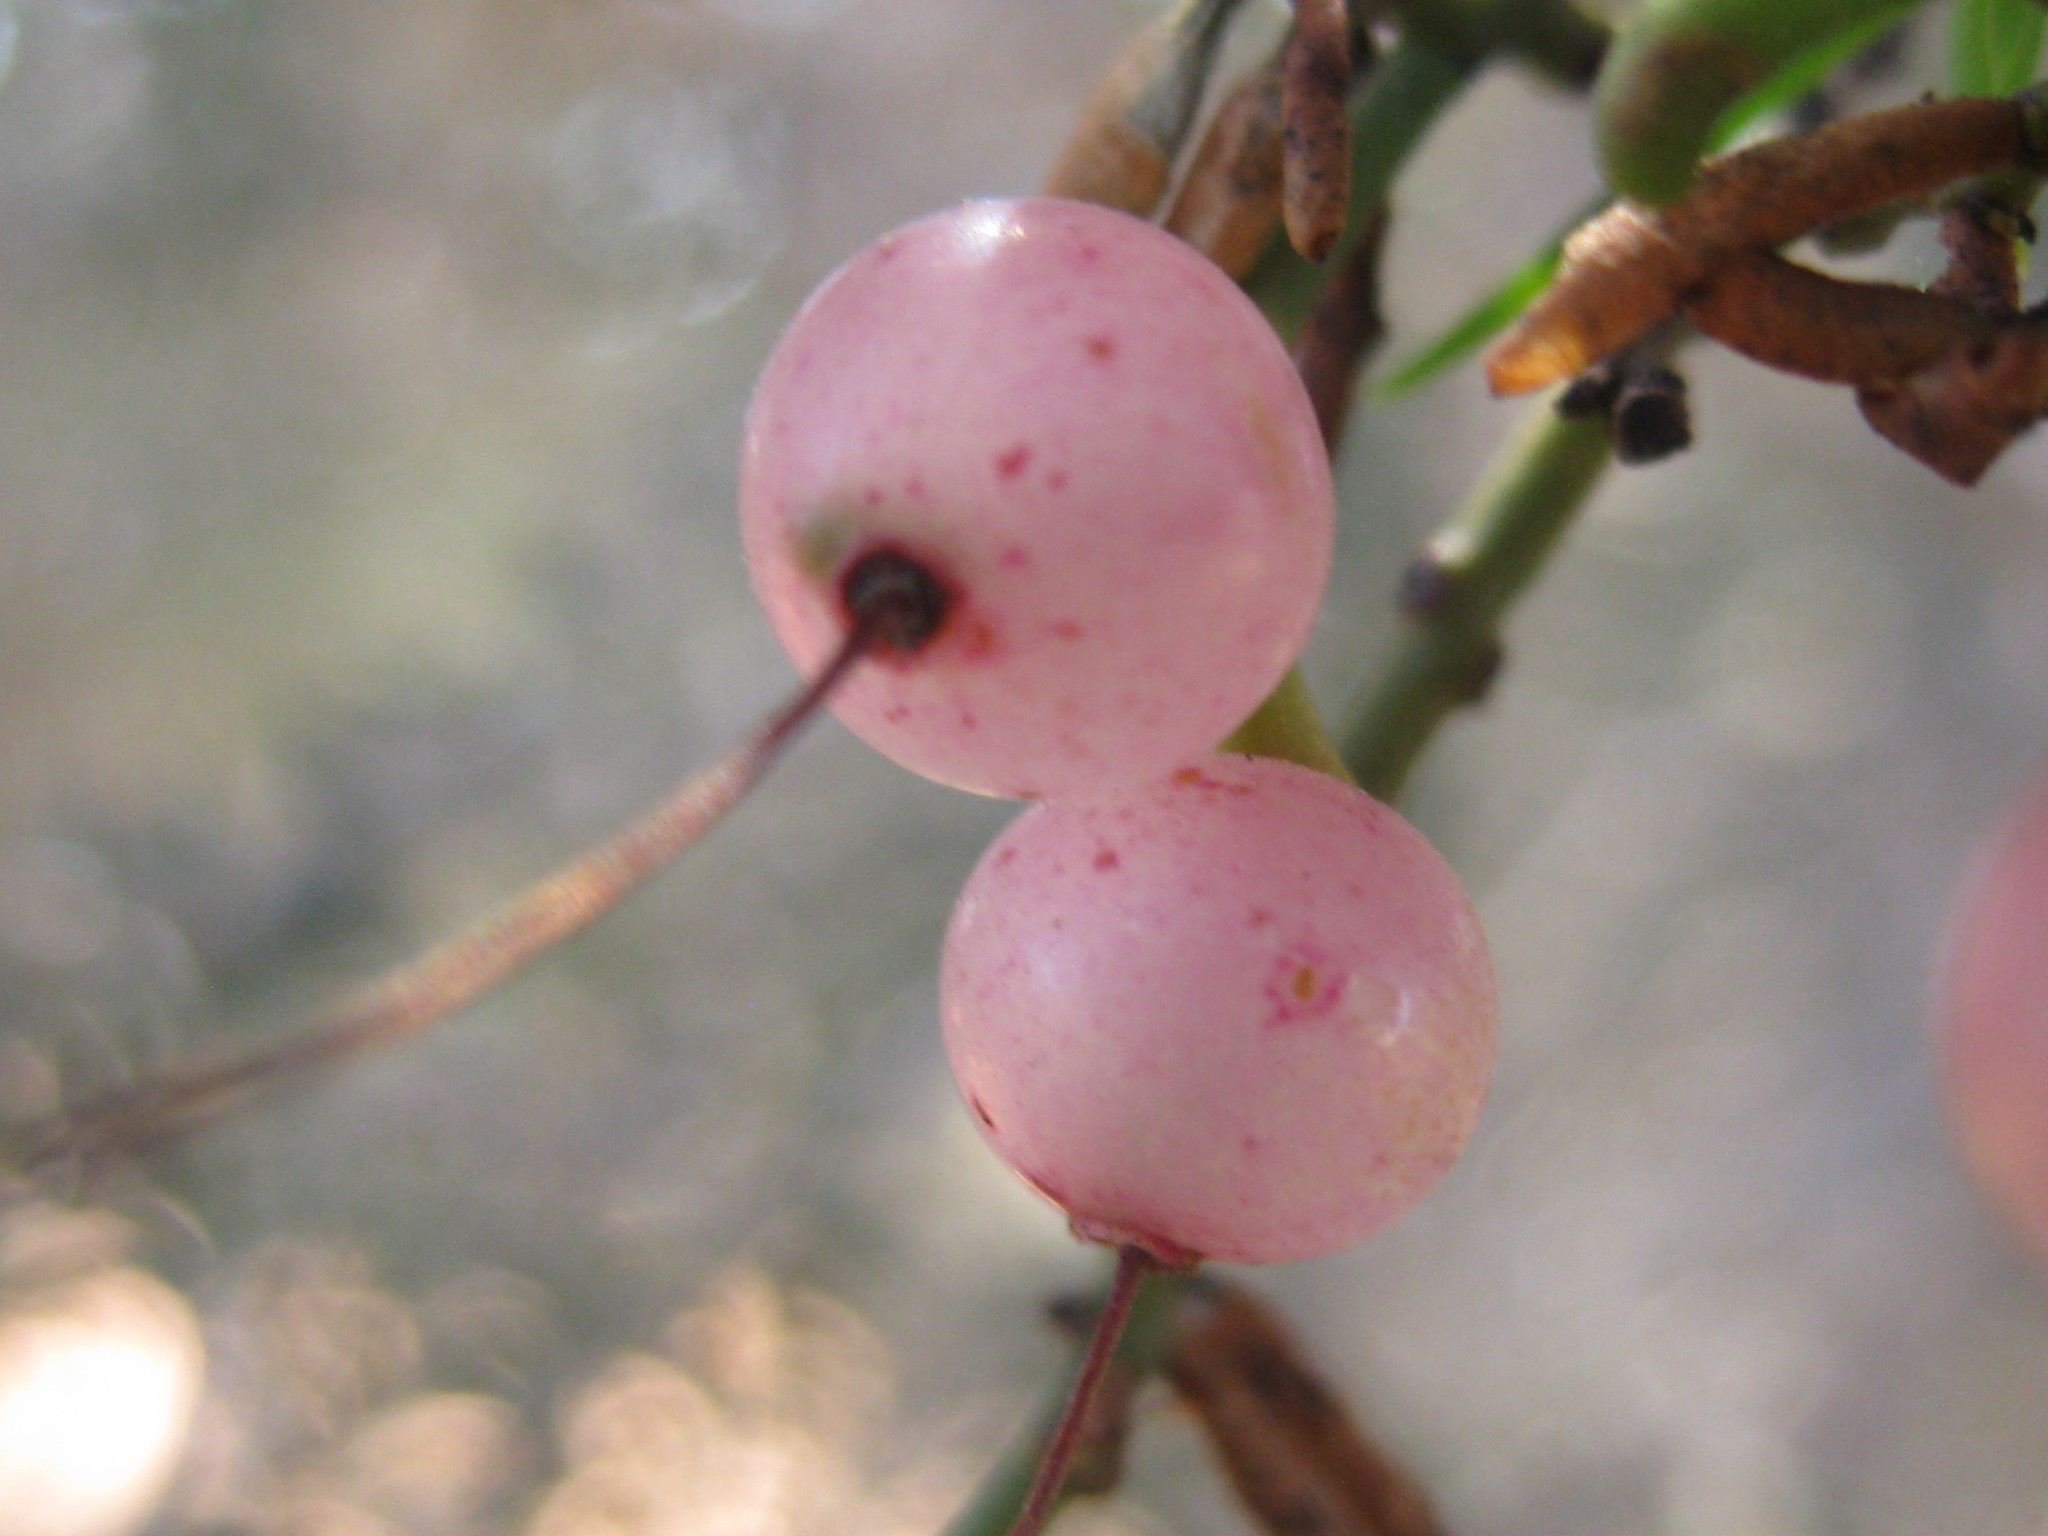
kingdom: Plantae
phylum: Tracheophyta
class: Magnoliopsida
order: Santalales
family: Loranthaceae
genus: Amyema
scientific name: Amyema preissii
